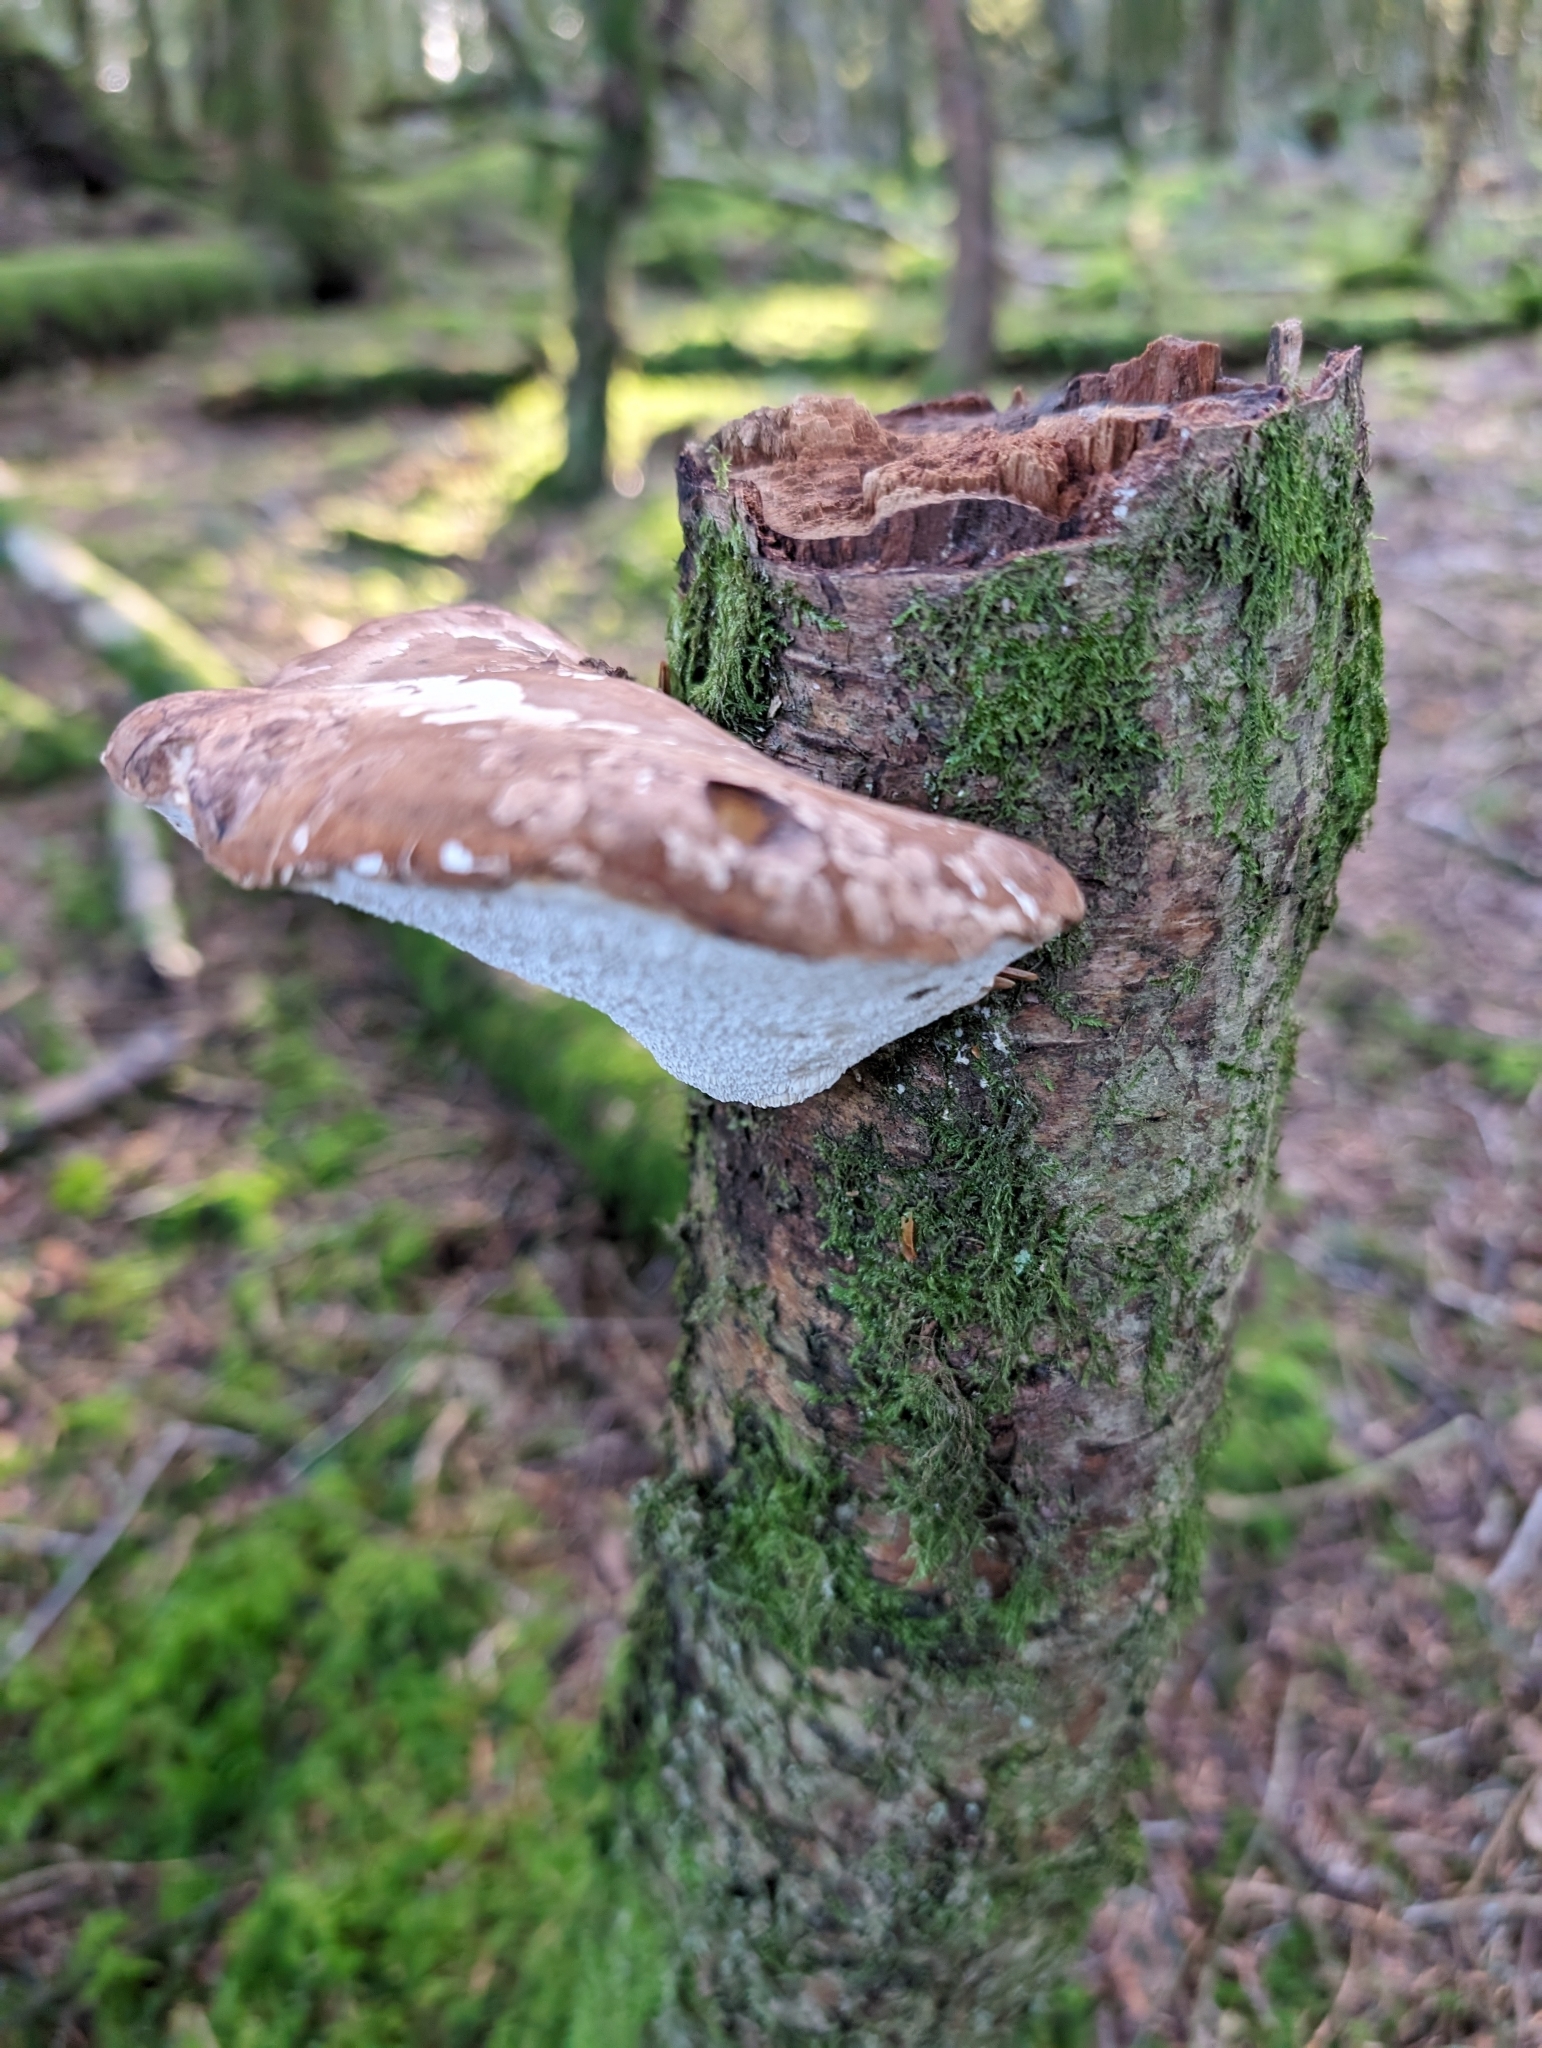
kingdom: Fungi
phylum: Basidiomycota
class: Agaricomycetes
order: Polyporales
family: Fomitopsidaceae
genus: Fomitopsis
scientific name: Fomitopsis betulina
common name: Birch polypore
